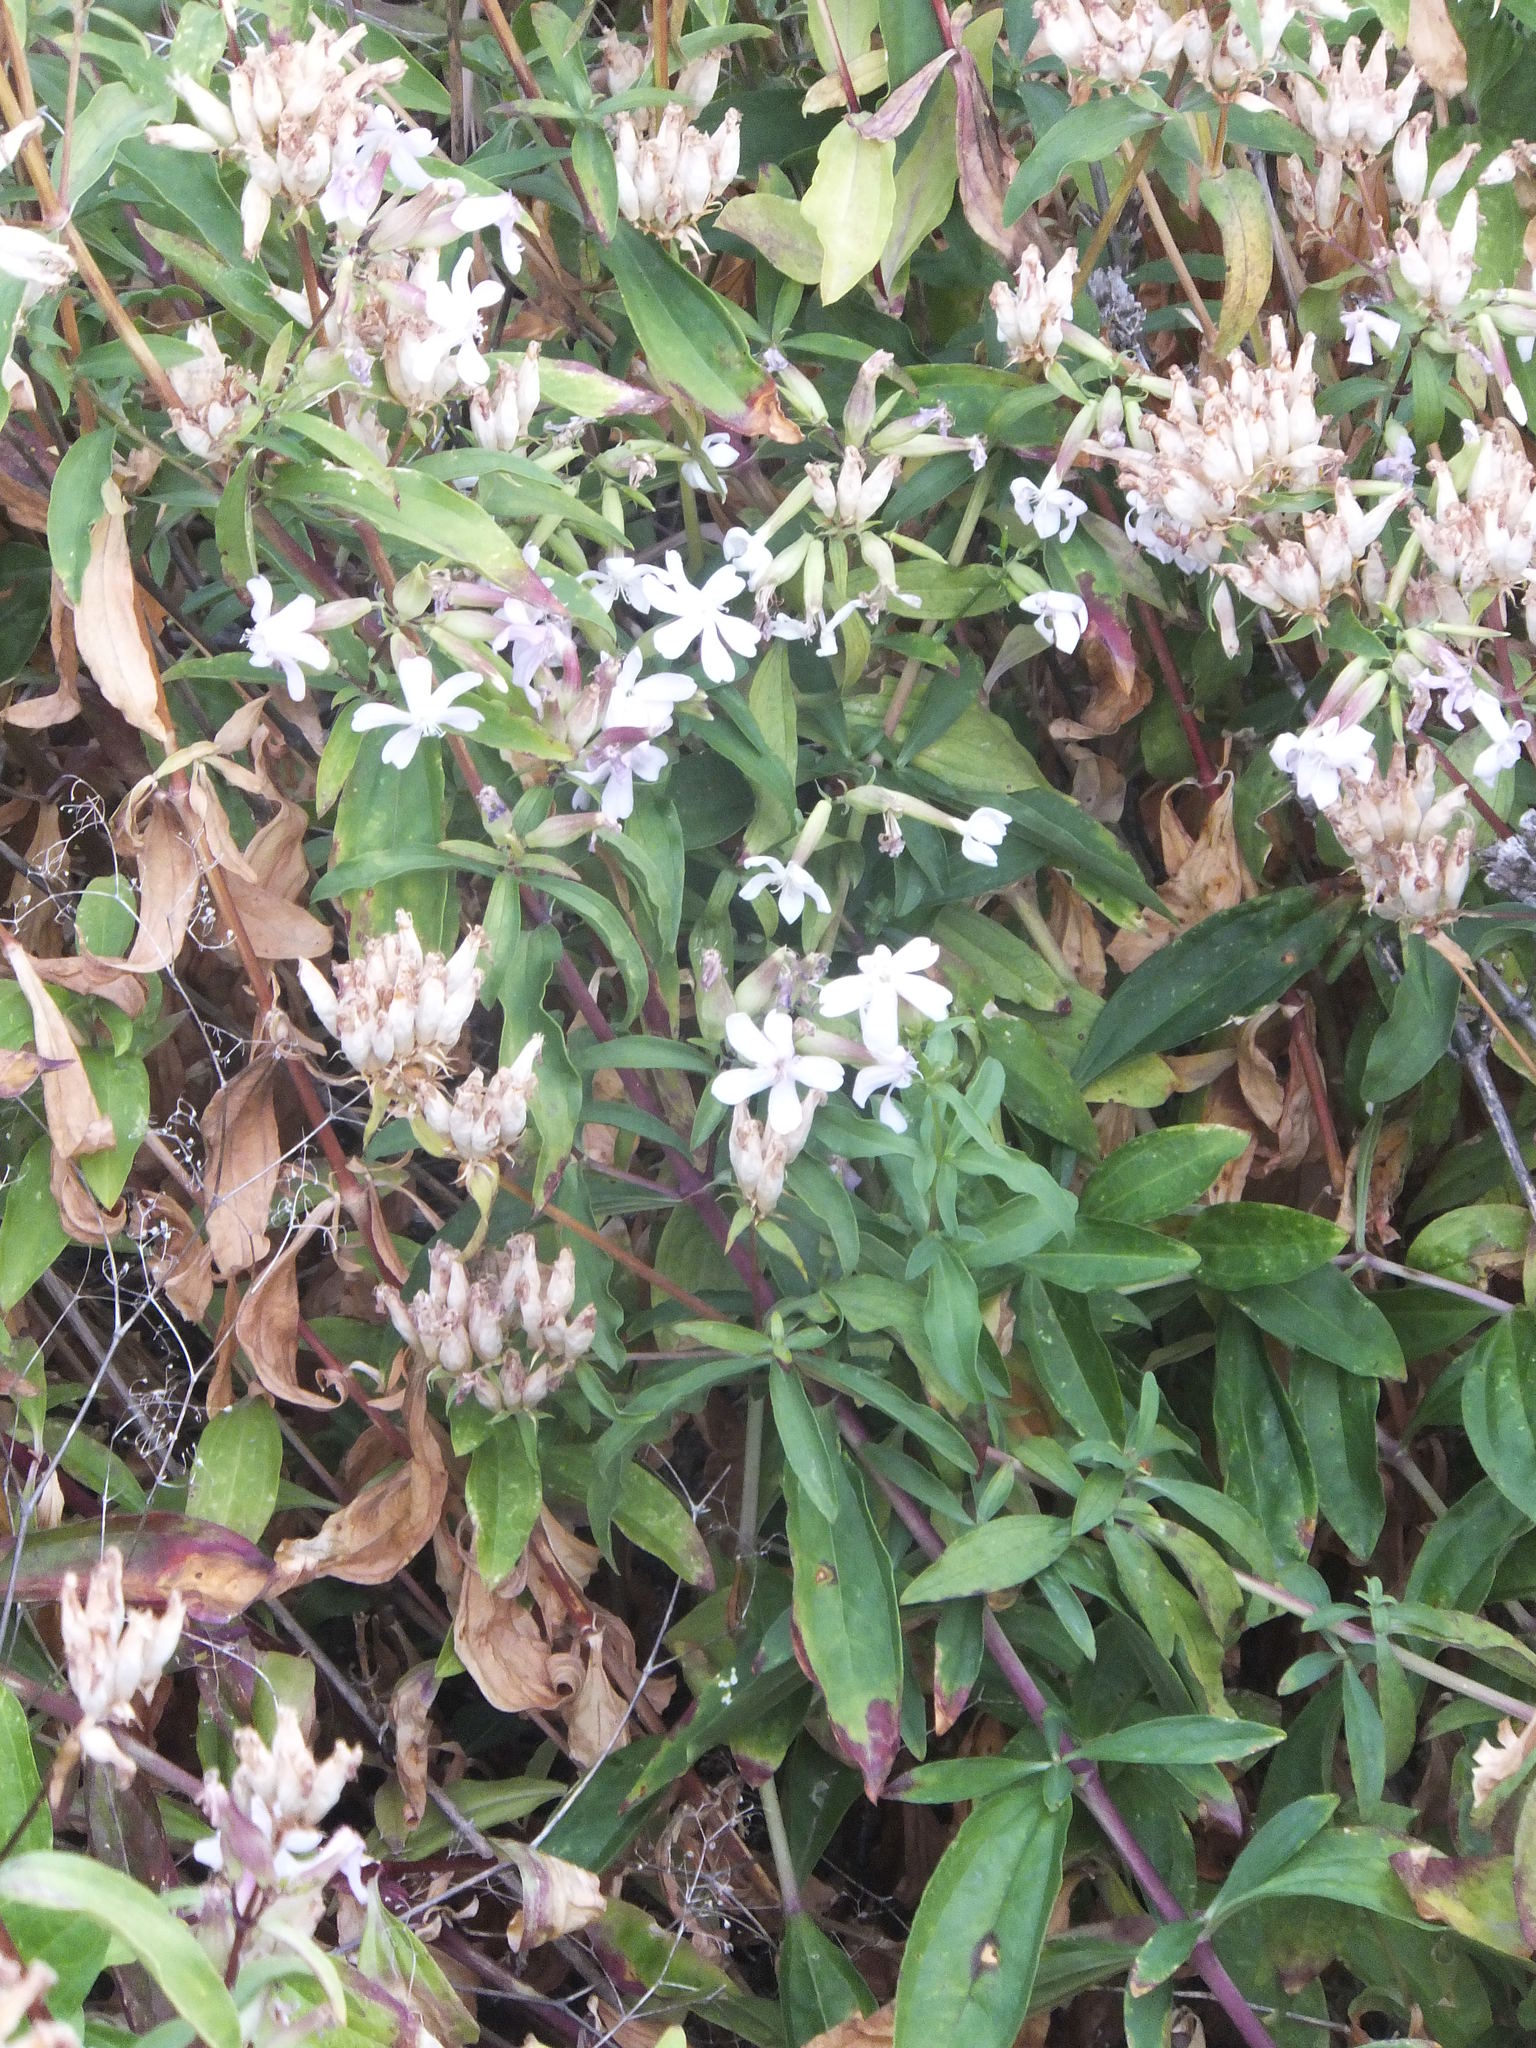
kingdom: Plantae
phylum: Tracheophyta
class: Magnoliopsida
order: Caryophyllales
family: Caryophyllaceae
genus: Saponaria
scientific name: Saponaria officinalis
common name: Soapwort
